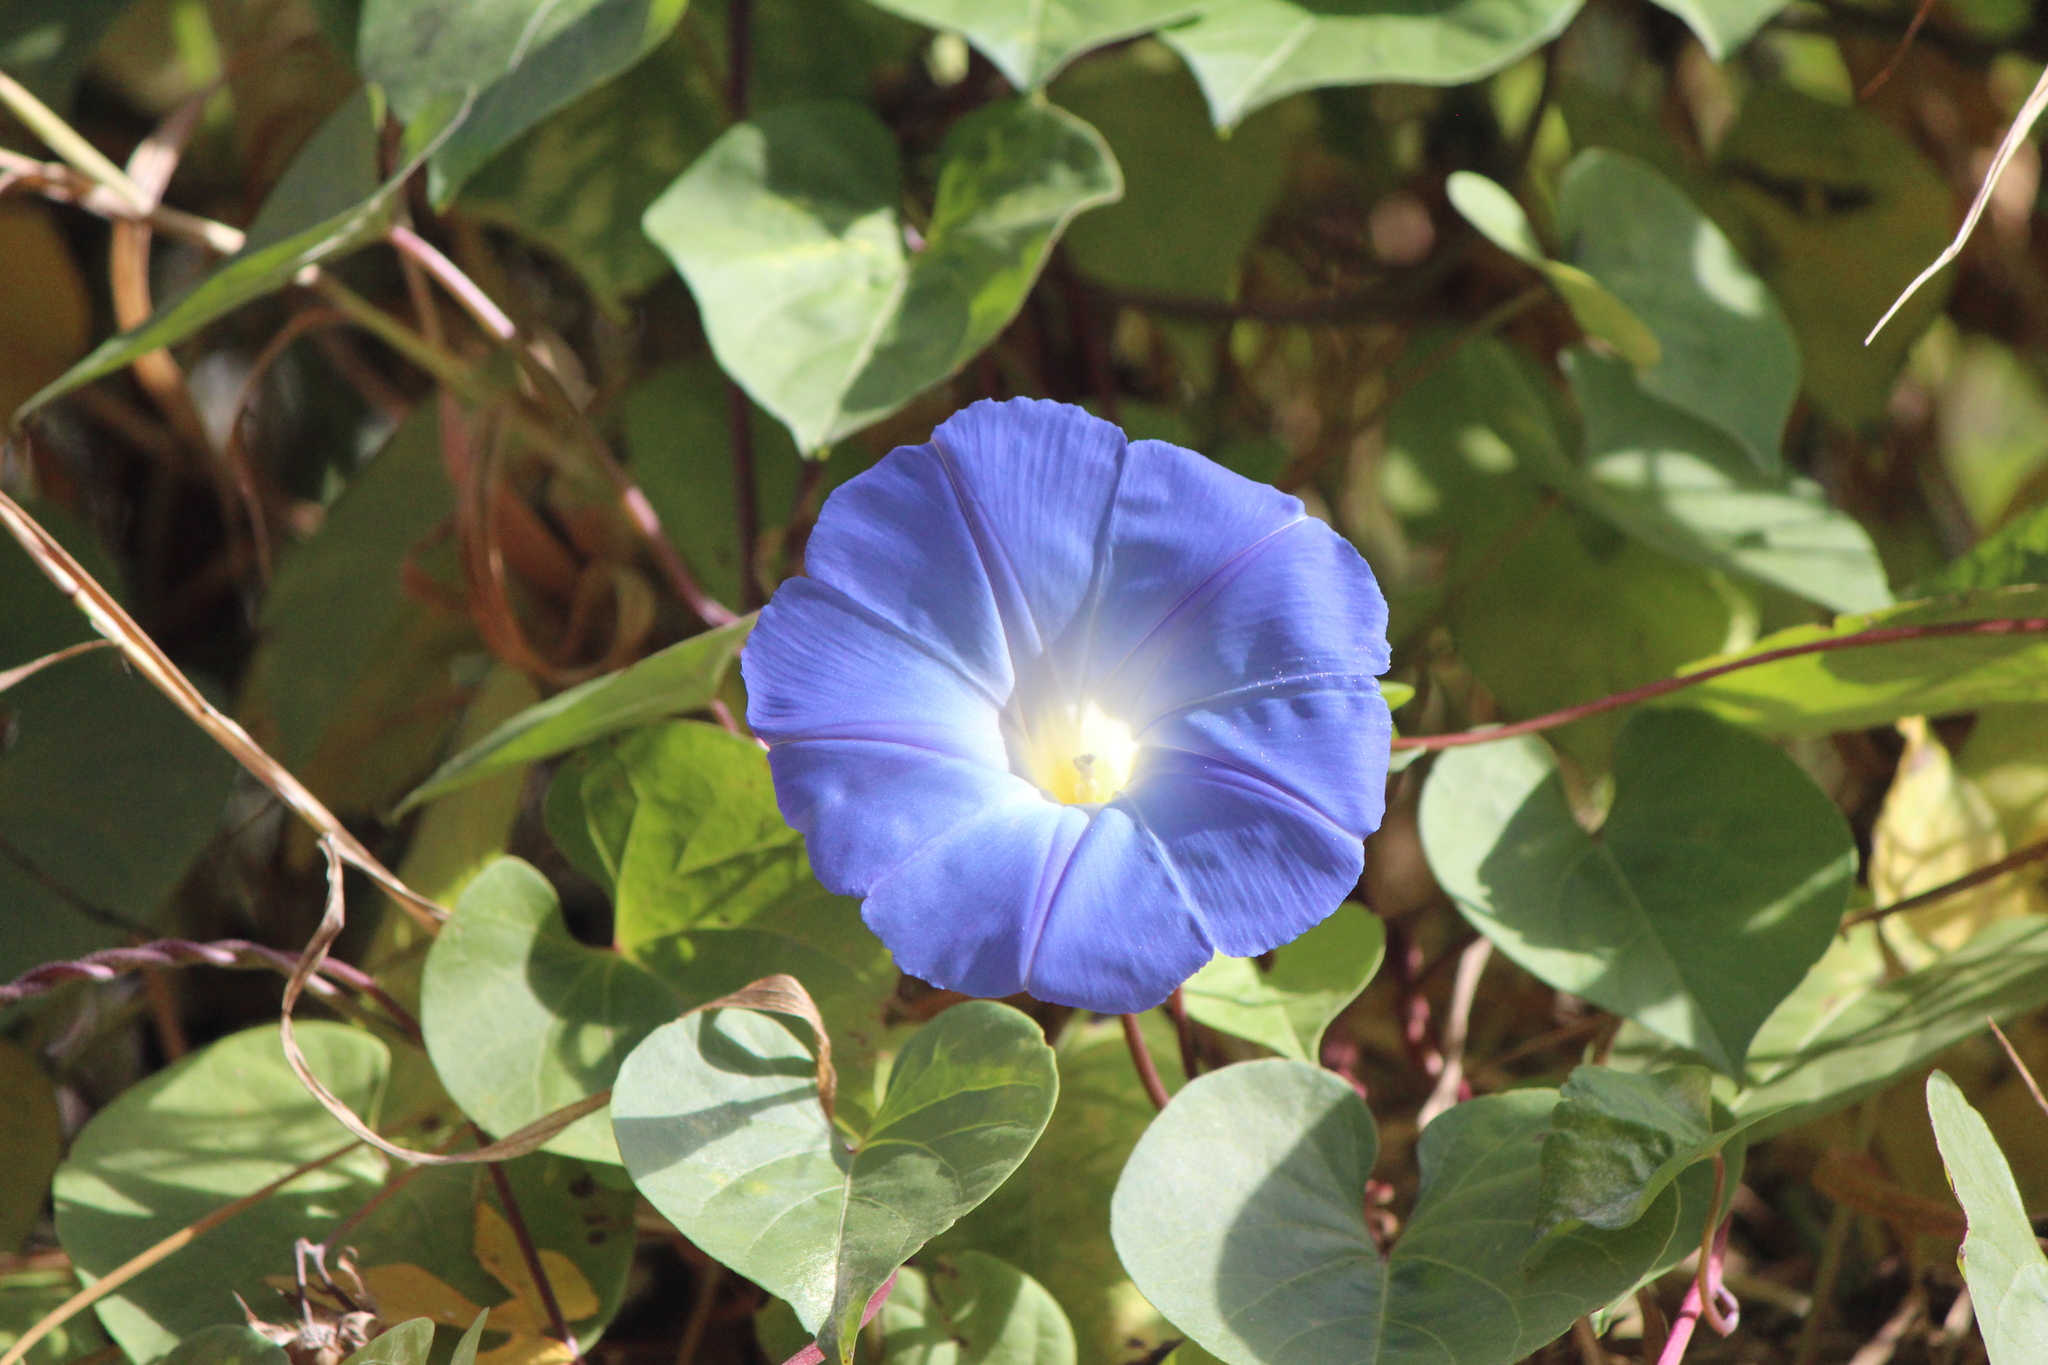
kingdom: Plantae
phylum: Tracheophyta
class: Magnoliopsida
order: Solanales
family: Convolvulaceae
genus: Ipomoea
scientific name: Ipomoea tricolor
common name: Morning-glory
